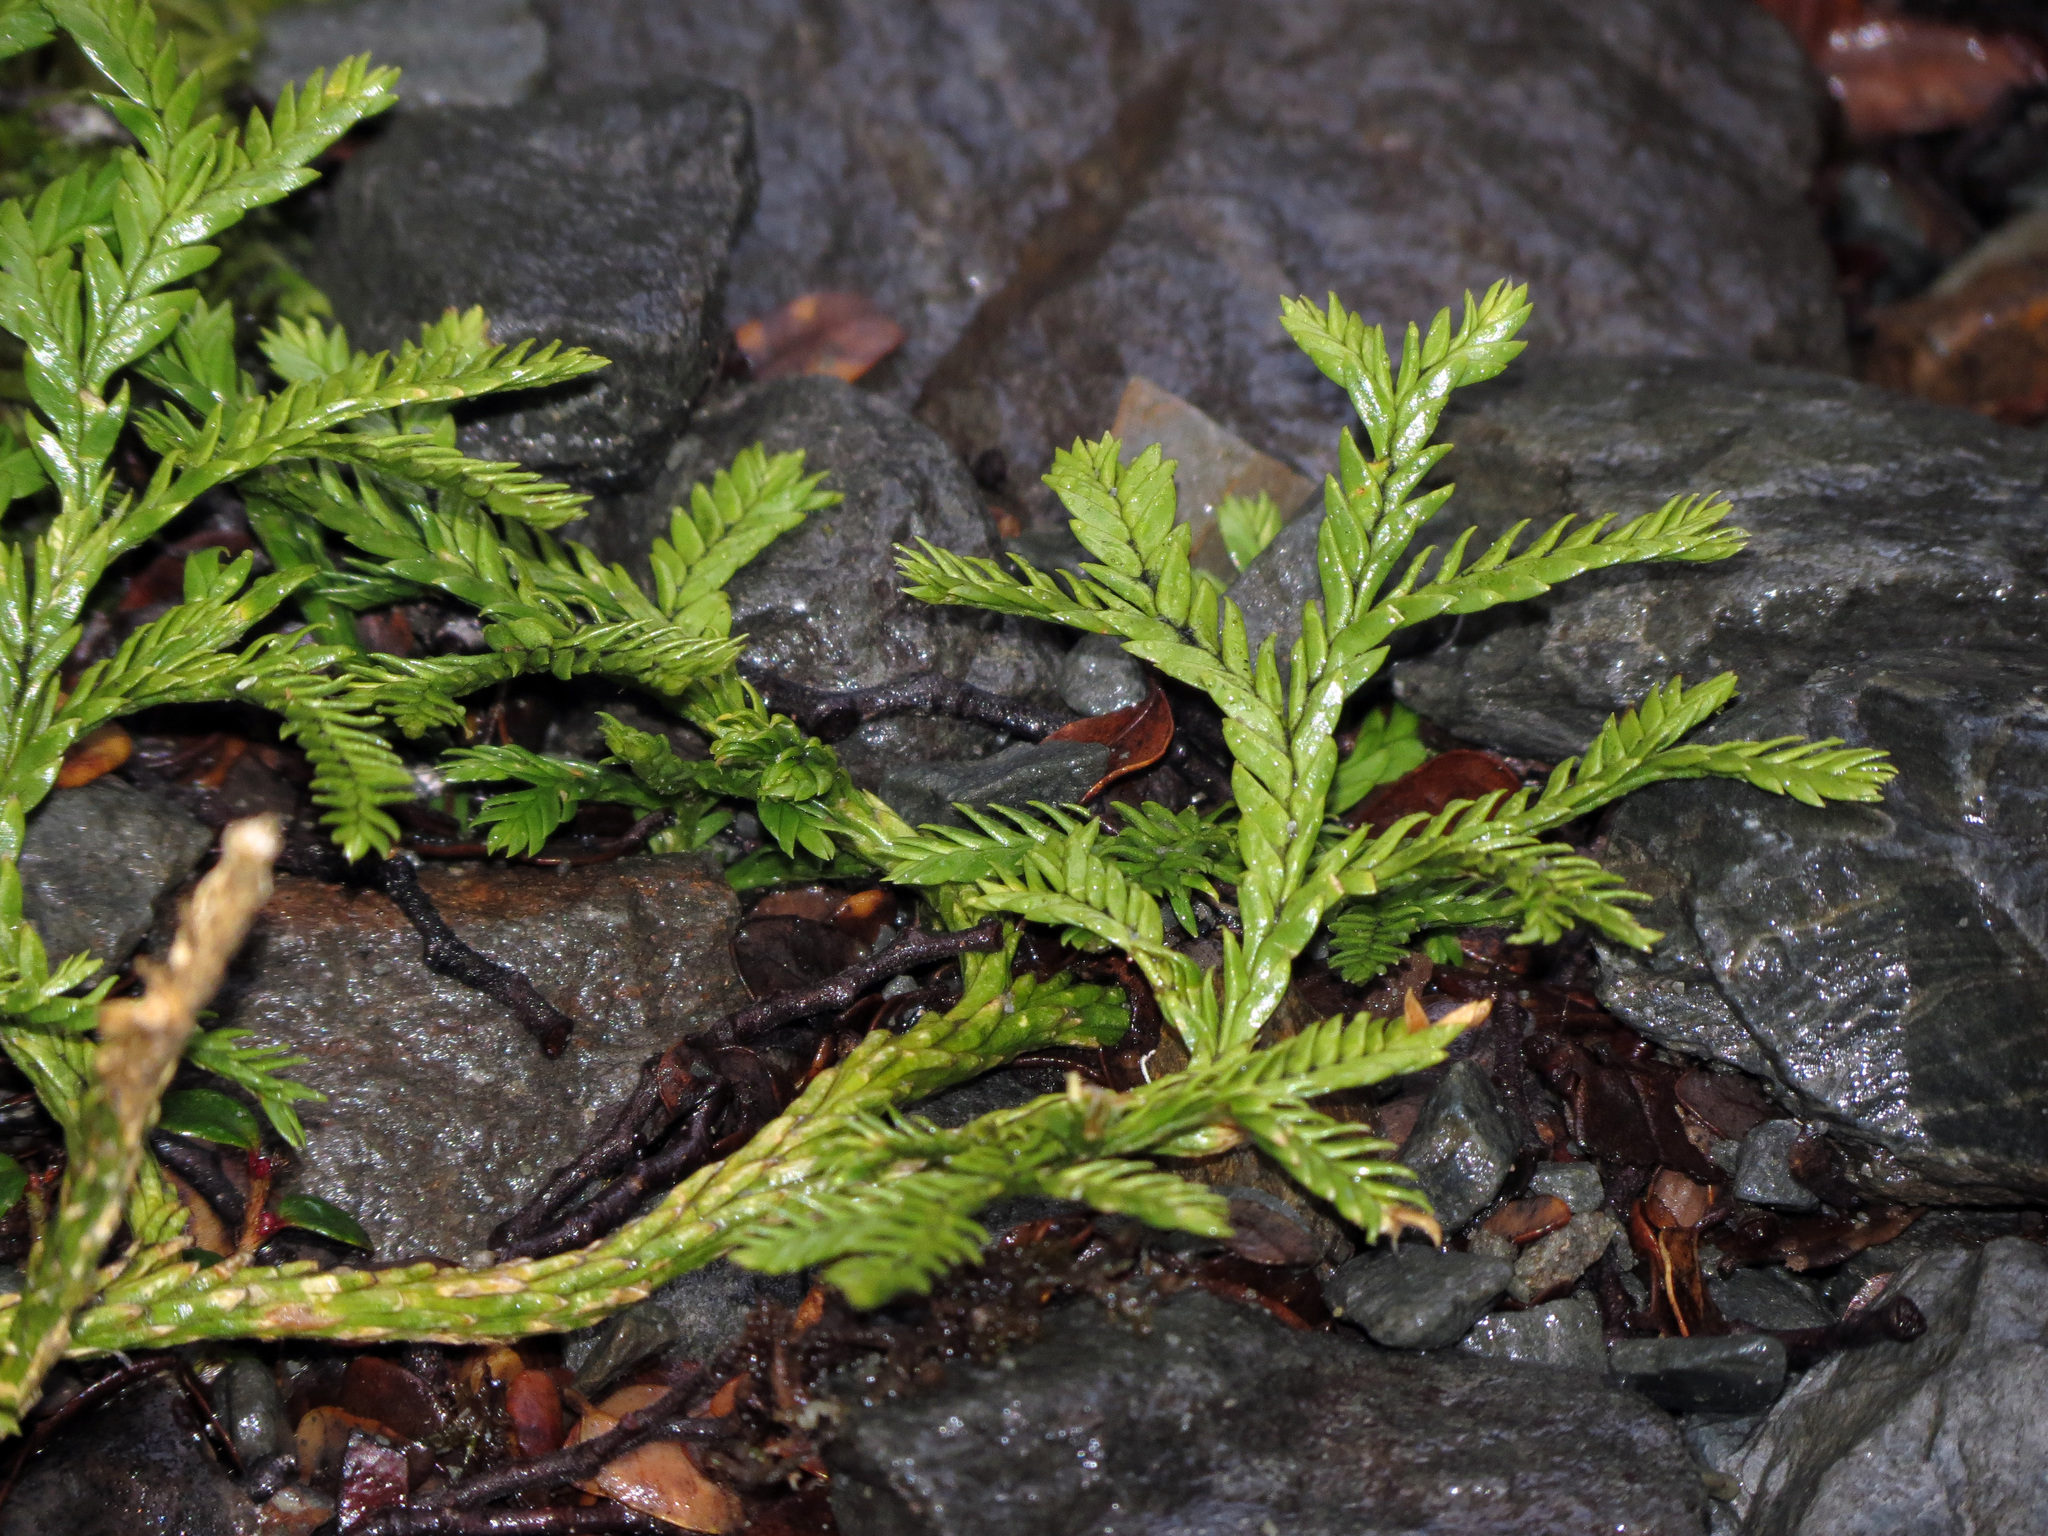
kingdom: Plantae
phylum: Tracheophyta
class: Lycopodiopsida
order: Lycopodiales
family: Lycopodiaceae
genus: Diphasium
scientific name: Diphasium scariosum
